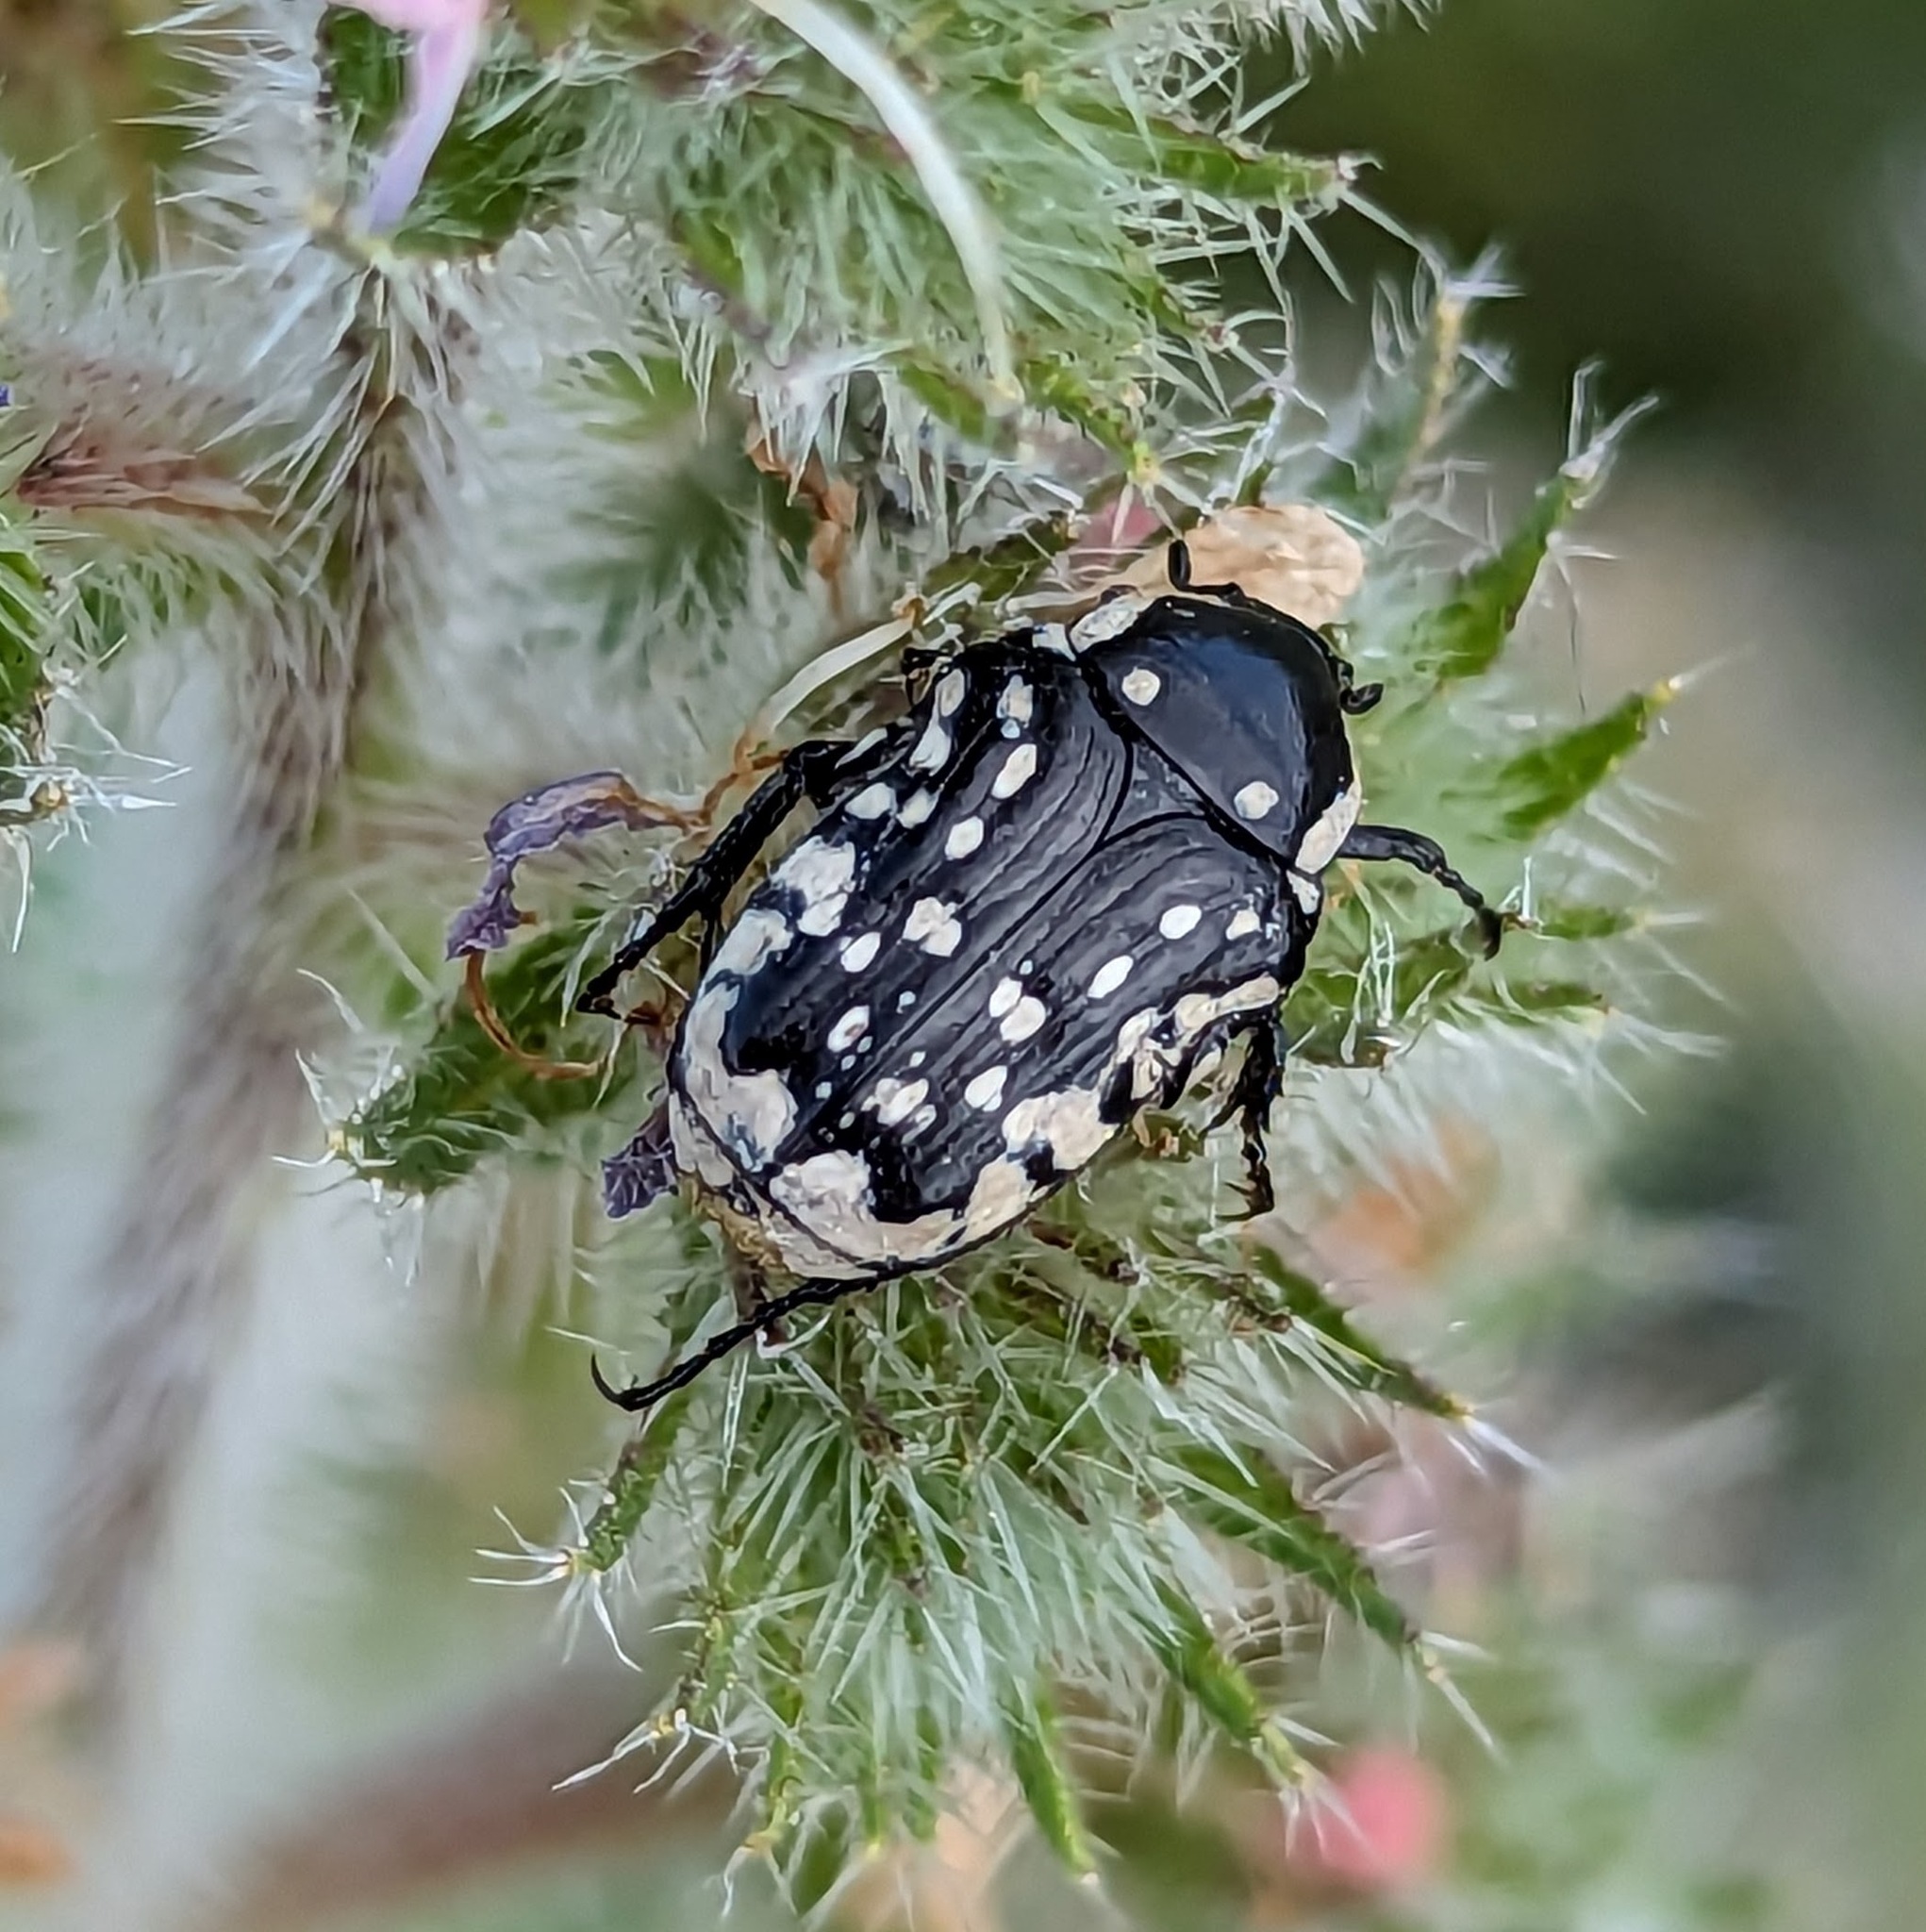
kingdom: Animalia
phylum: Arthropoda
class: Insecta
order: Coleoptera
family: Scarabaeidae
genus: Oxythyrea
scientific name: Oxythyrea cinctella
